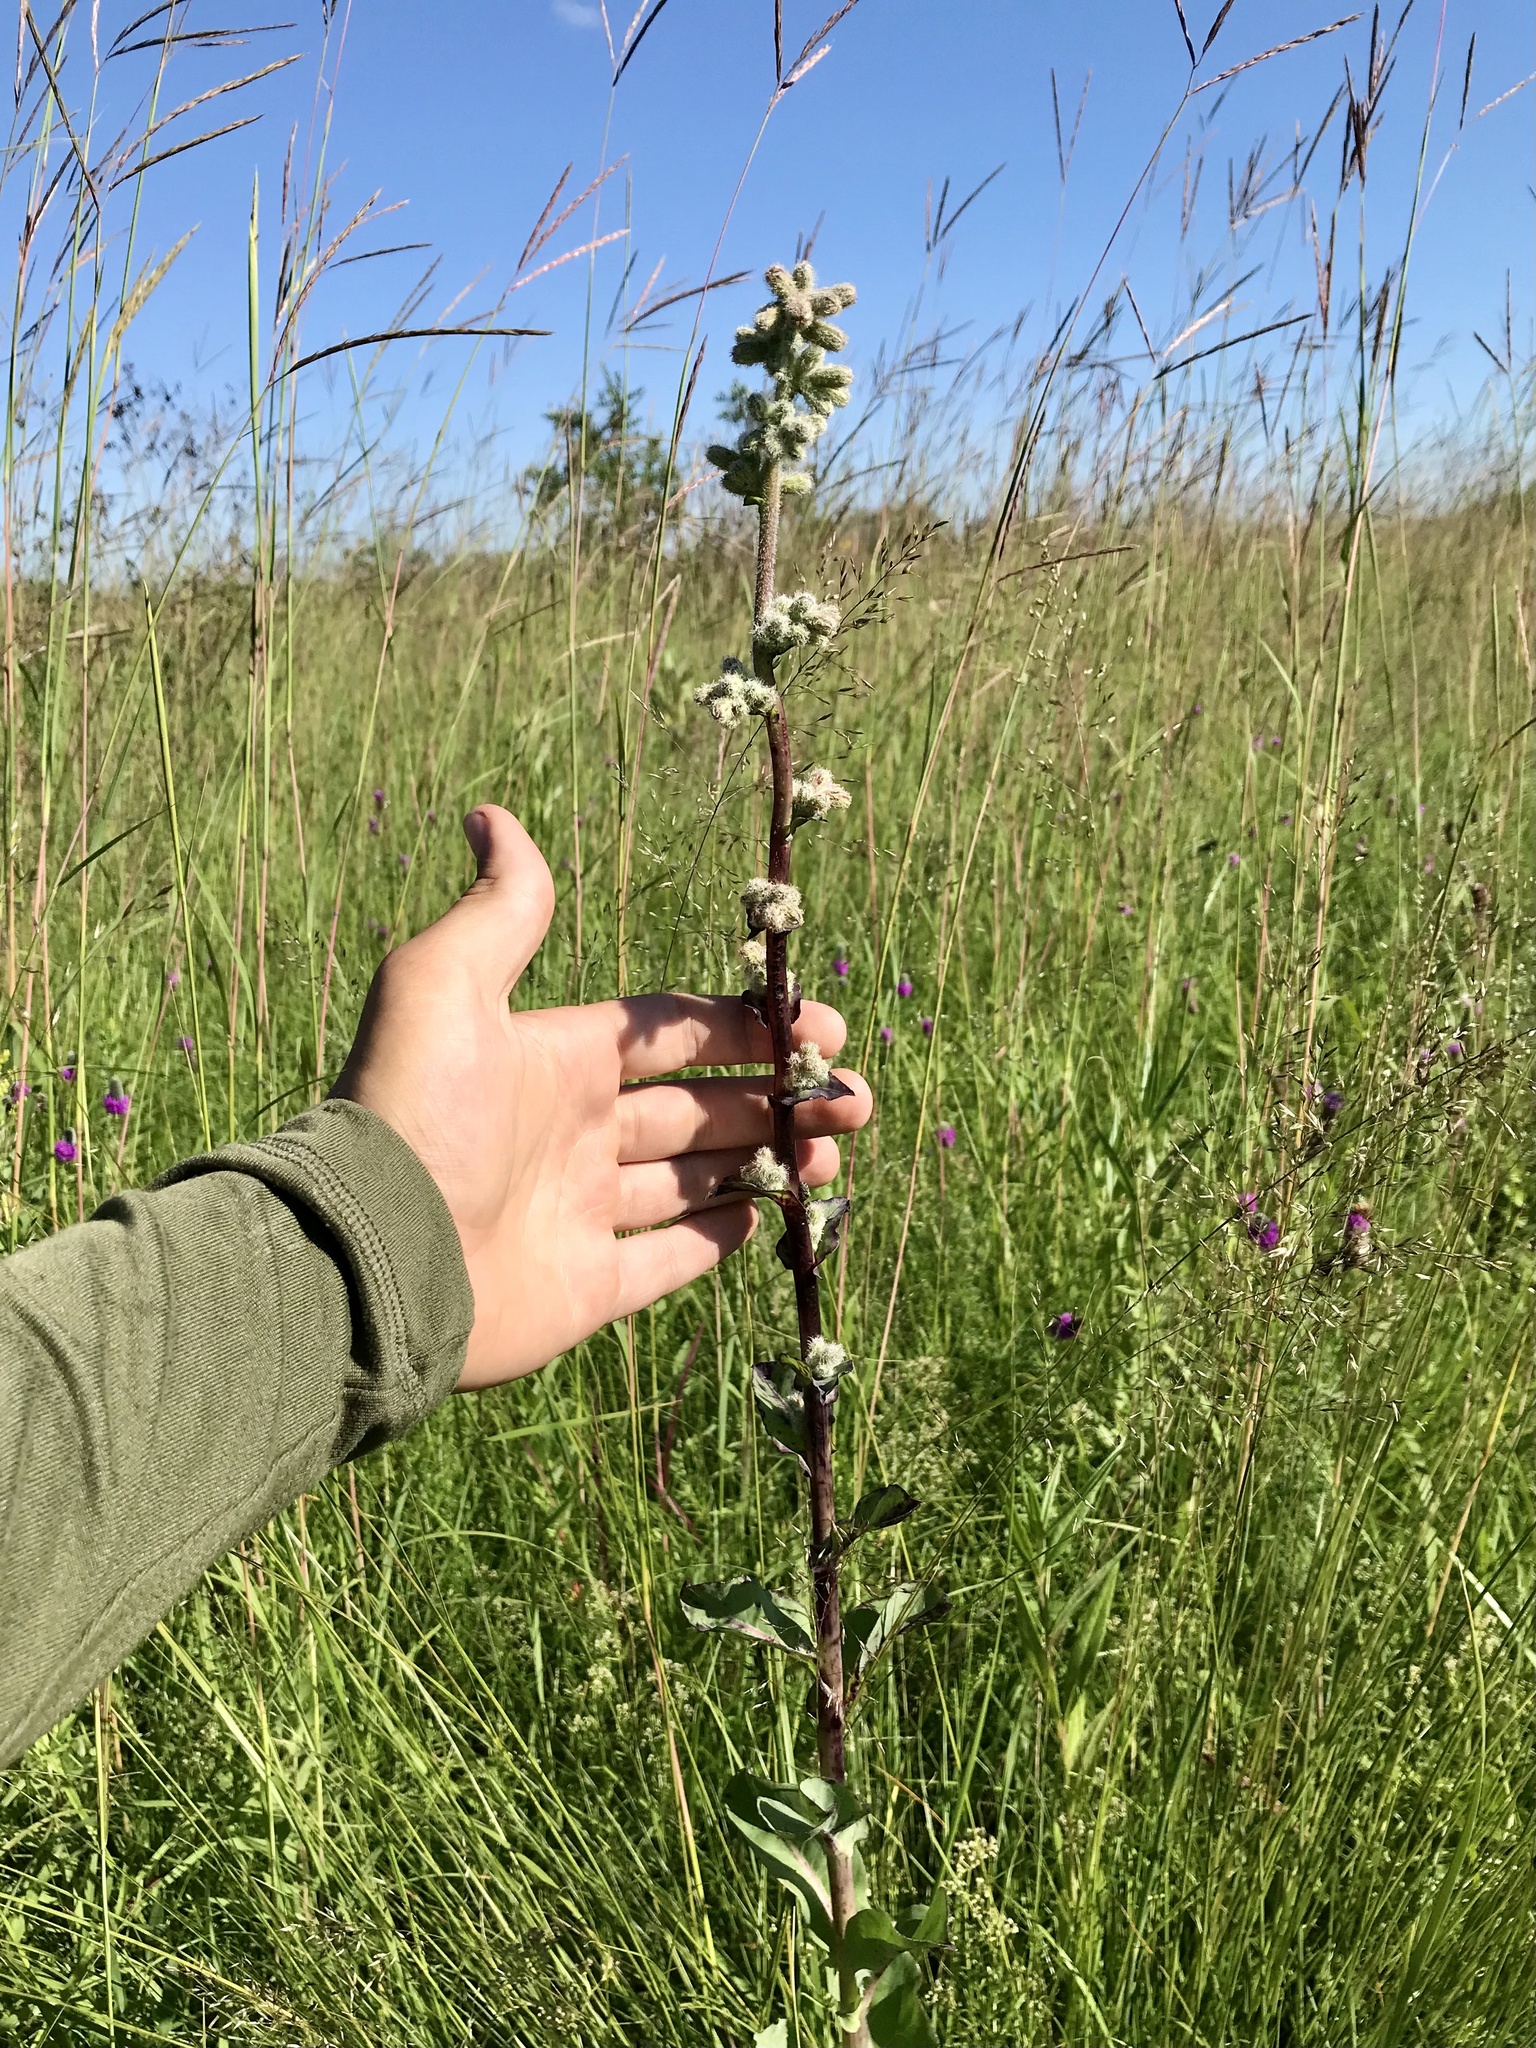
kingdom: Plantae
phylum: Tracheophyta
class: Magnoliopsida
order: Asterales
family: Asteraceae
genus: Nabalus
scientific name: Nabalus racemosus
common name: Glaucous white lettuce
